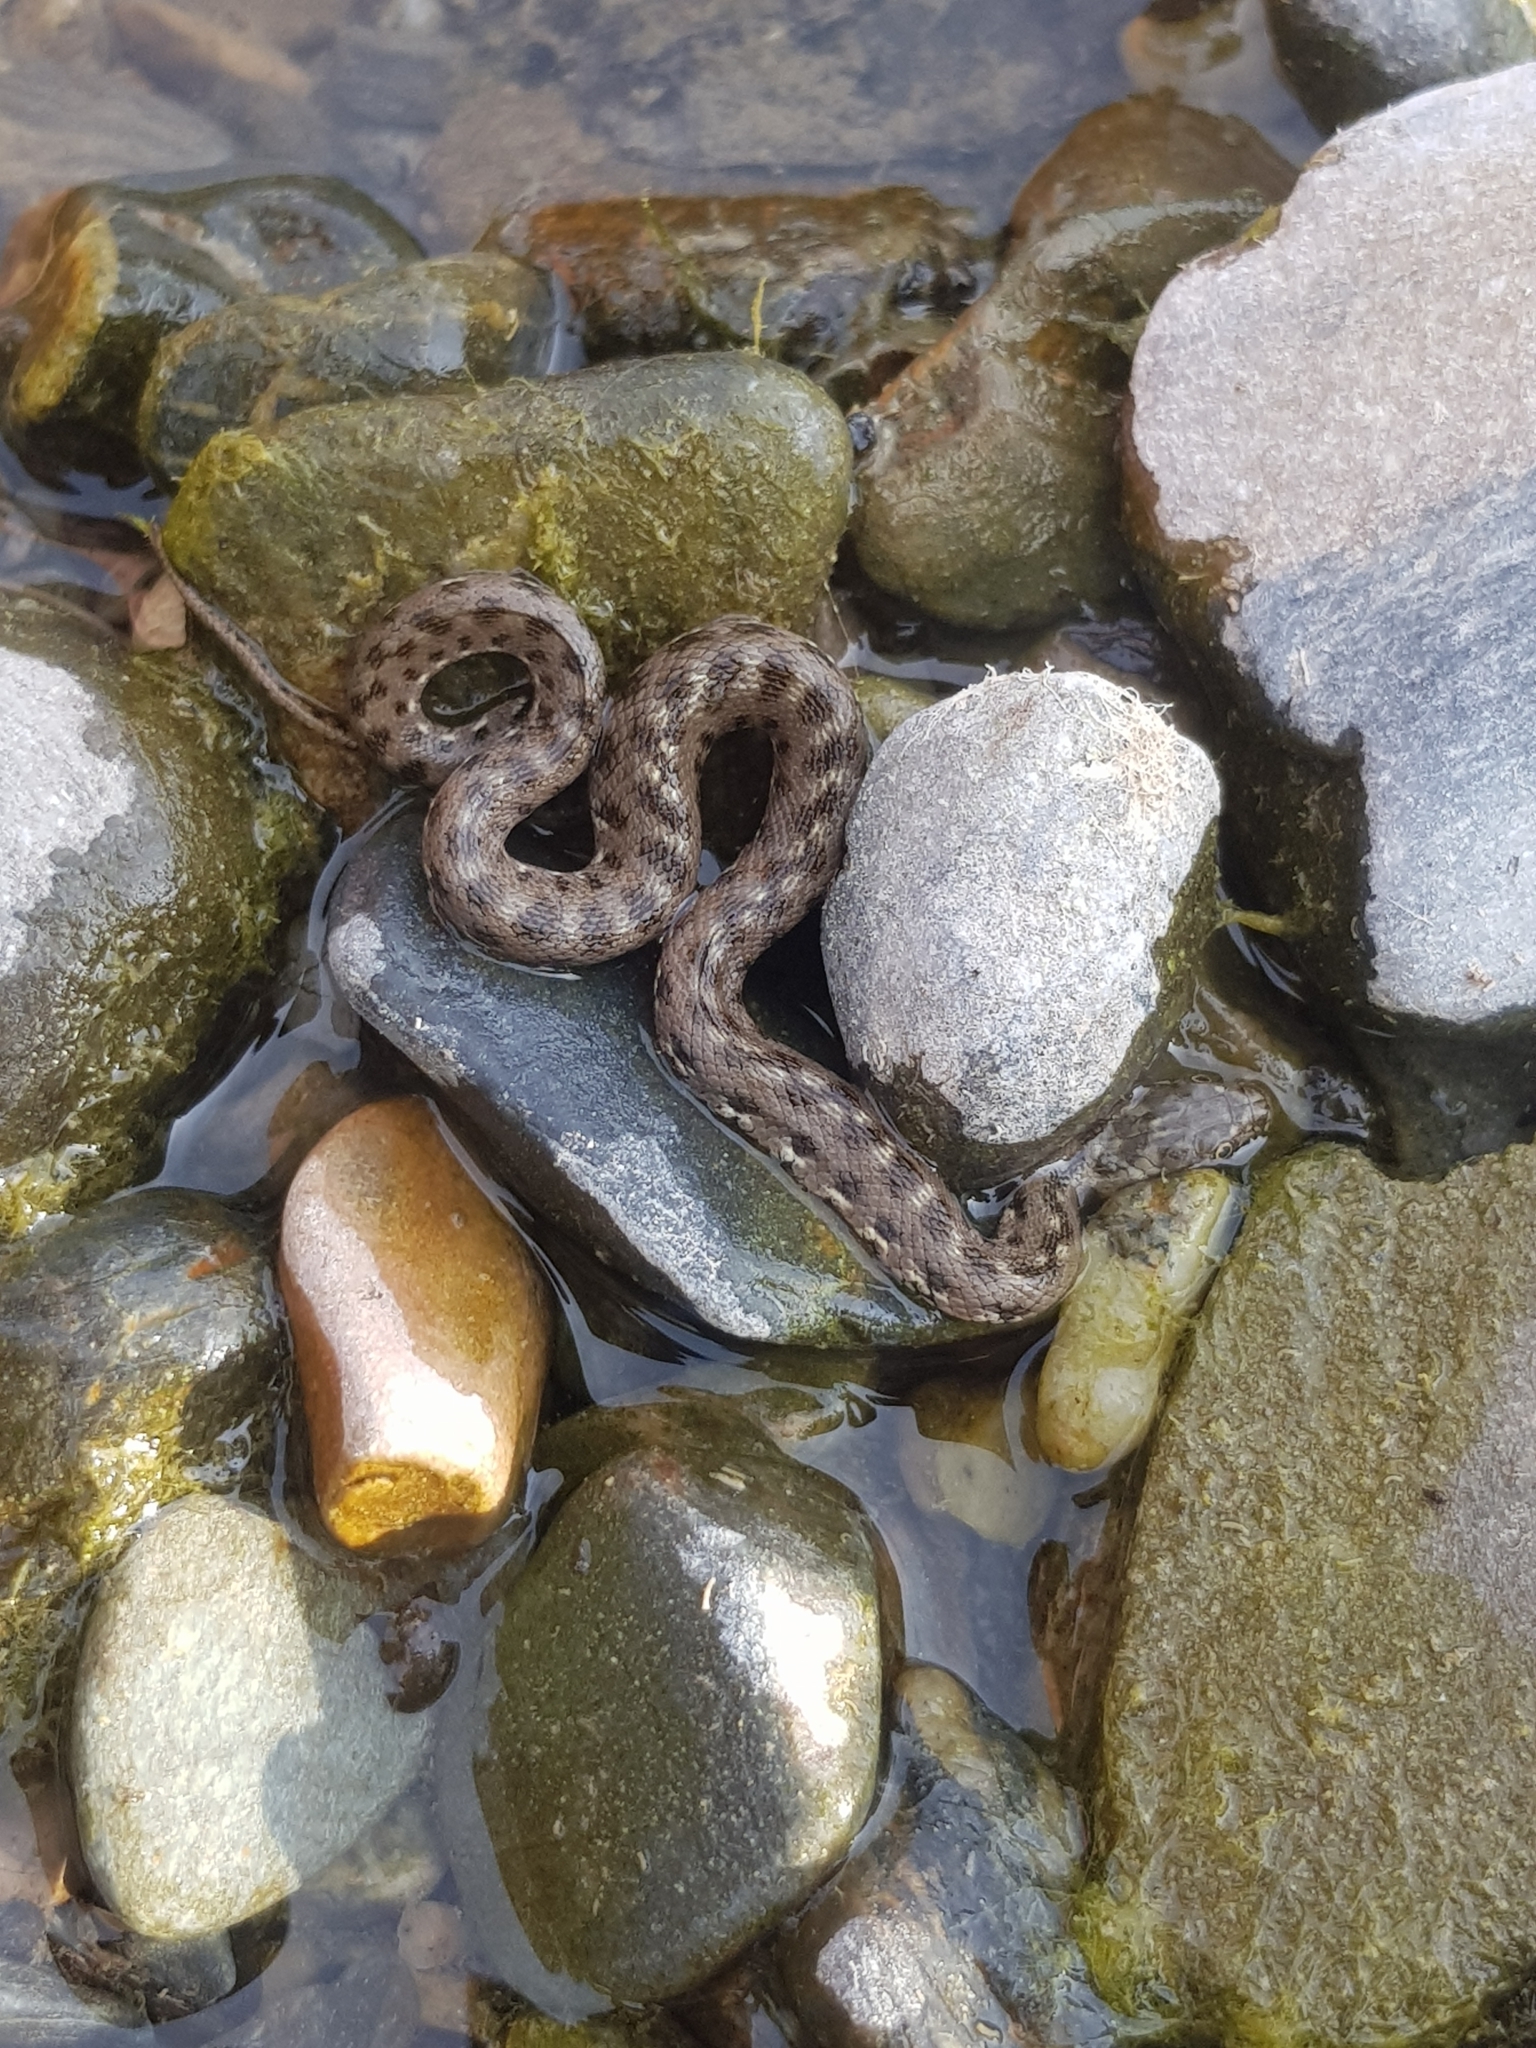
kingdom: Animalia
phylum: Chordata
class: Squamata
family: Colubridae
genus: Natrix
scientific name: Natrix maura
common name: Viperine water snake
